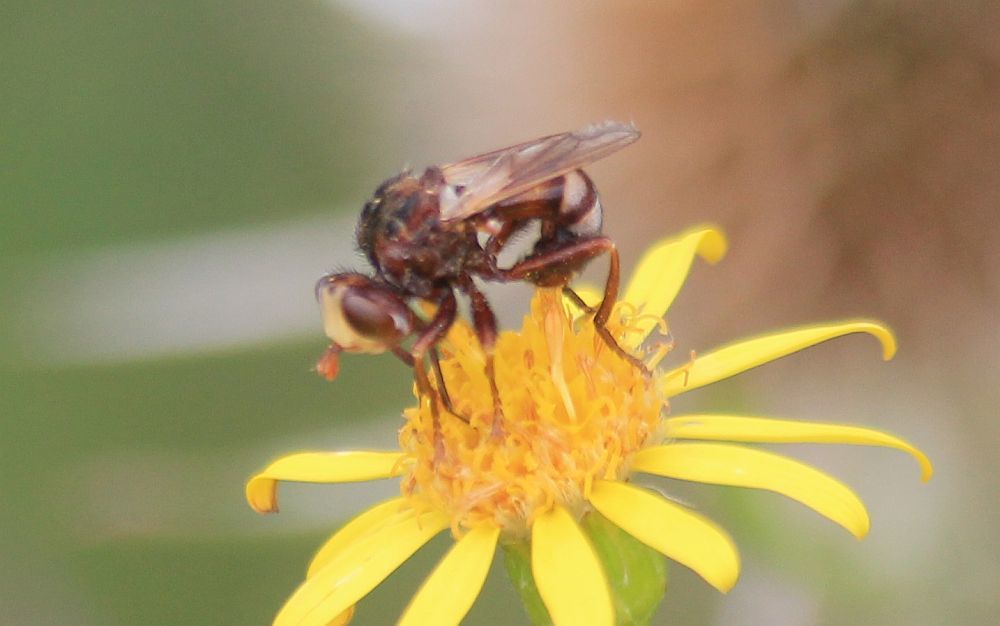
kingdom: Animalia
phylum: Arthropoda
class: Insecta
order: Diptera
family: Conopidae
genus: Sicus
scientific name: Sicus ferrugineus
